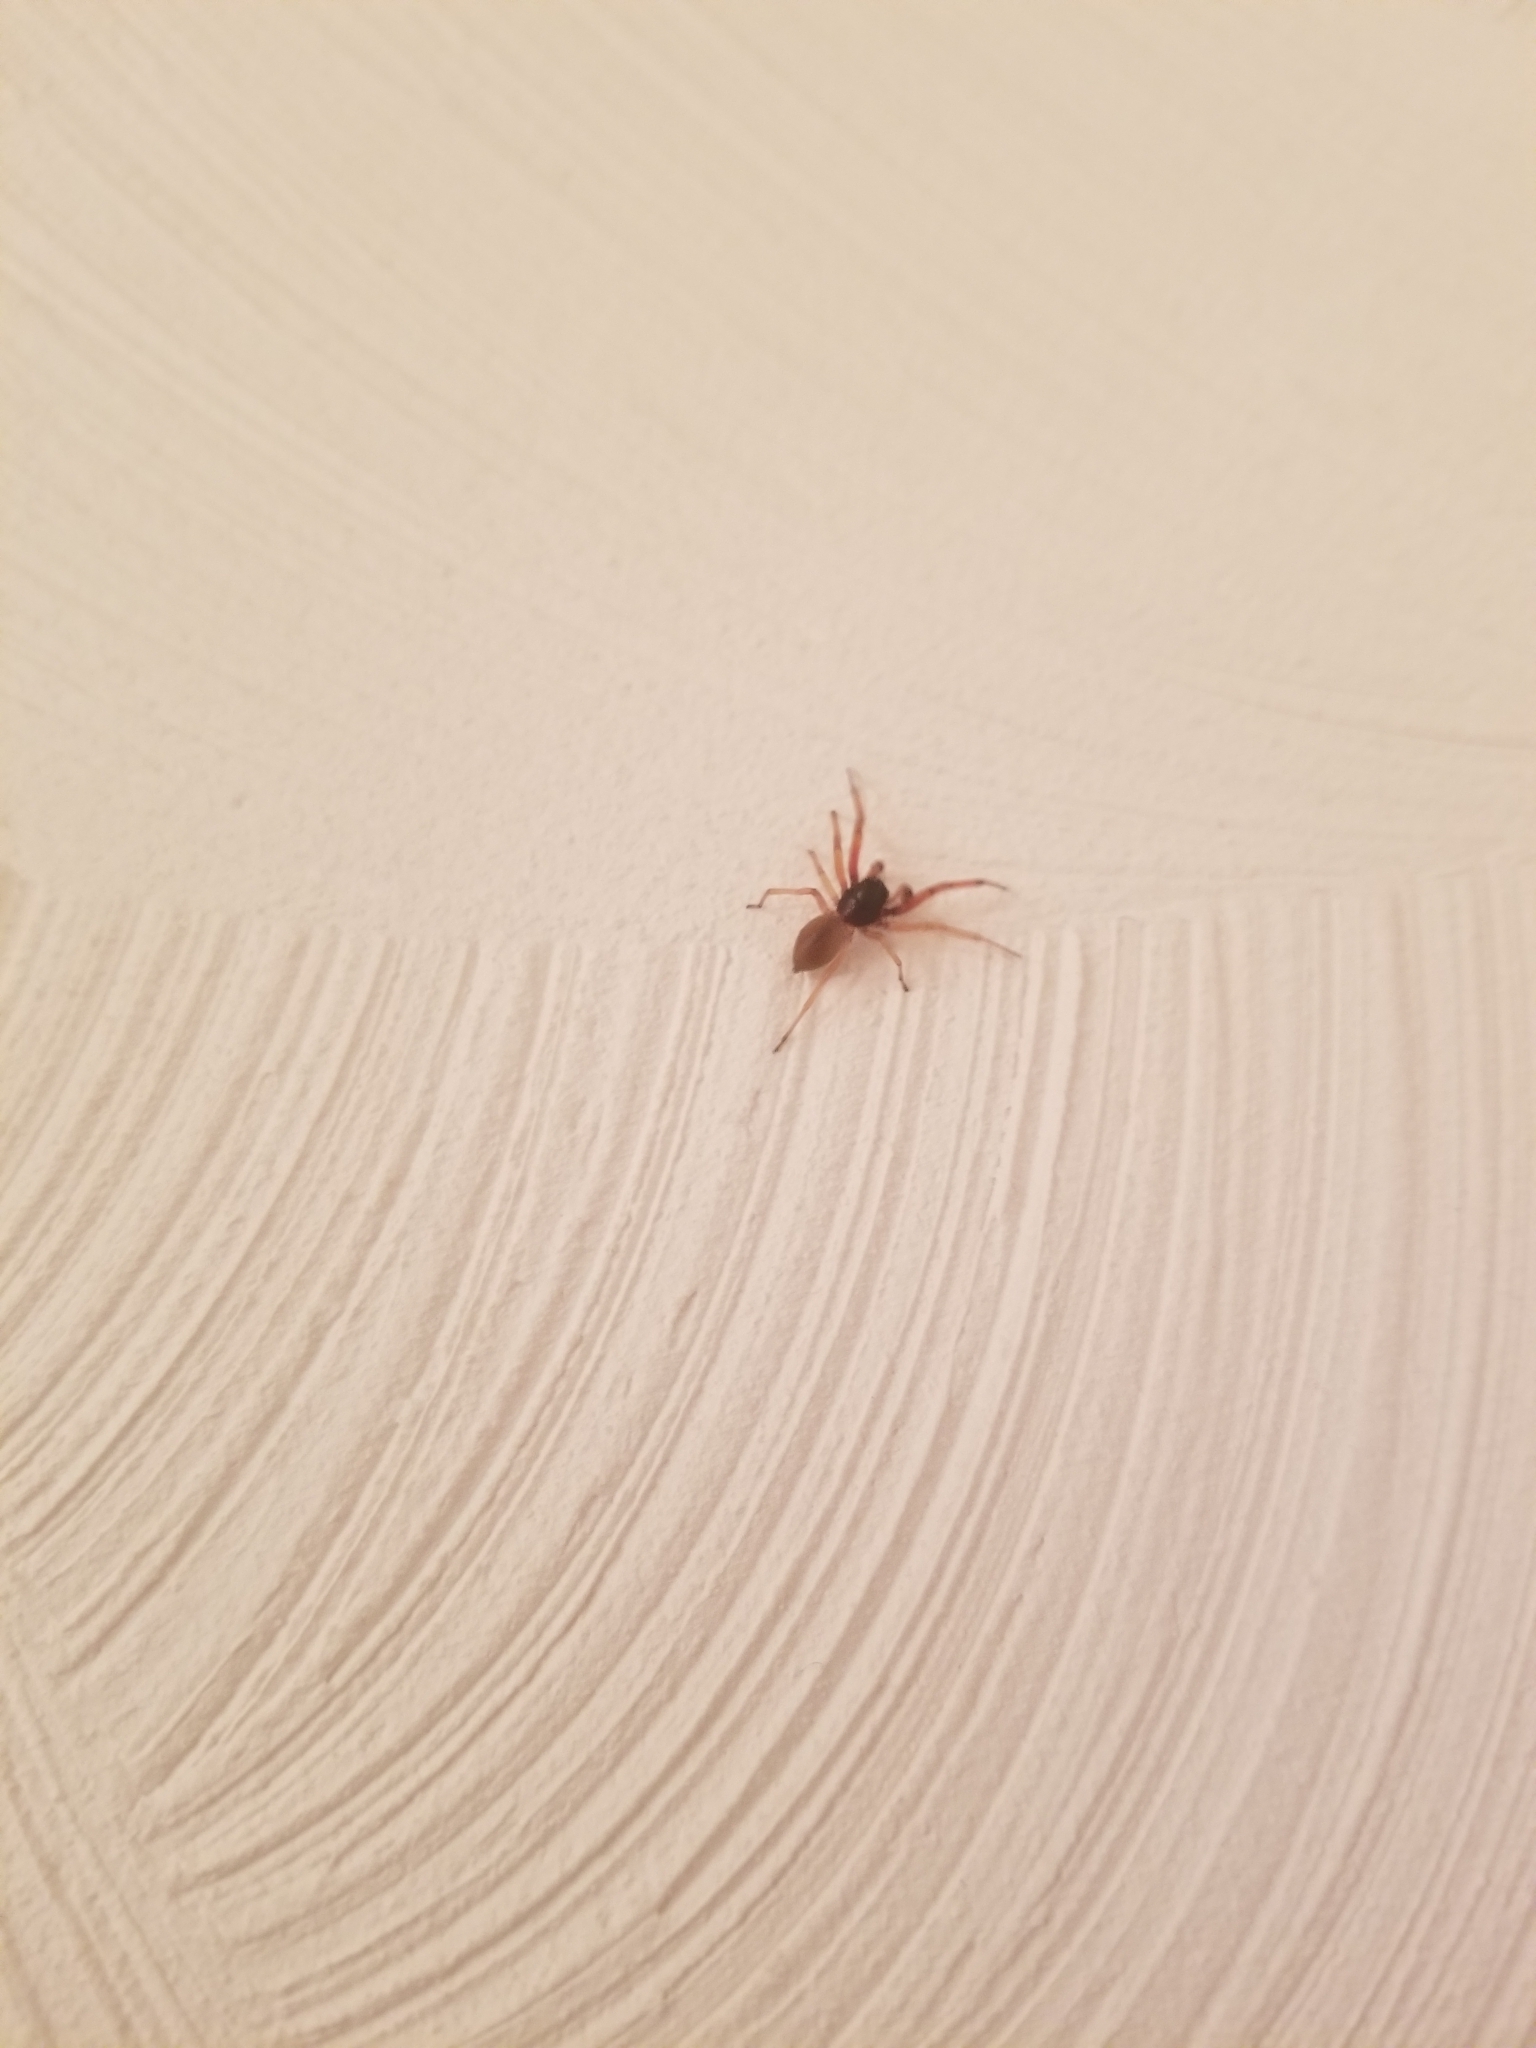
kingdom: Animalia
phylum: Arthropoda
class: Arachnida
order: Araneae
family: Trachelidae
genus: Trachelas
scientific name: Trachelas tranquillus
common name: Broad-faced sac spider
